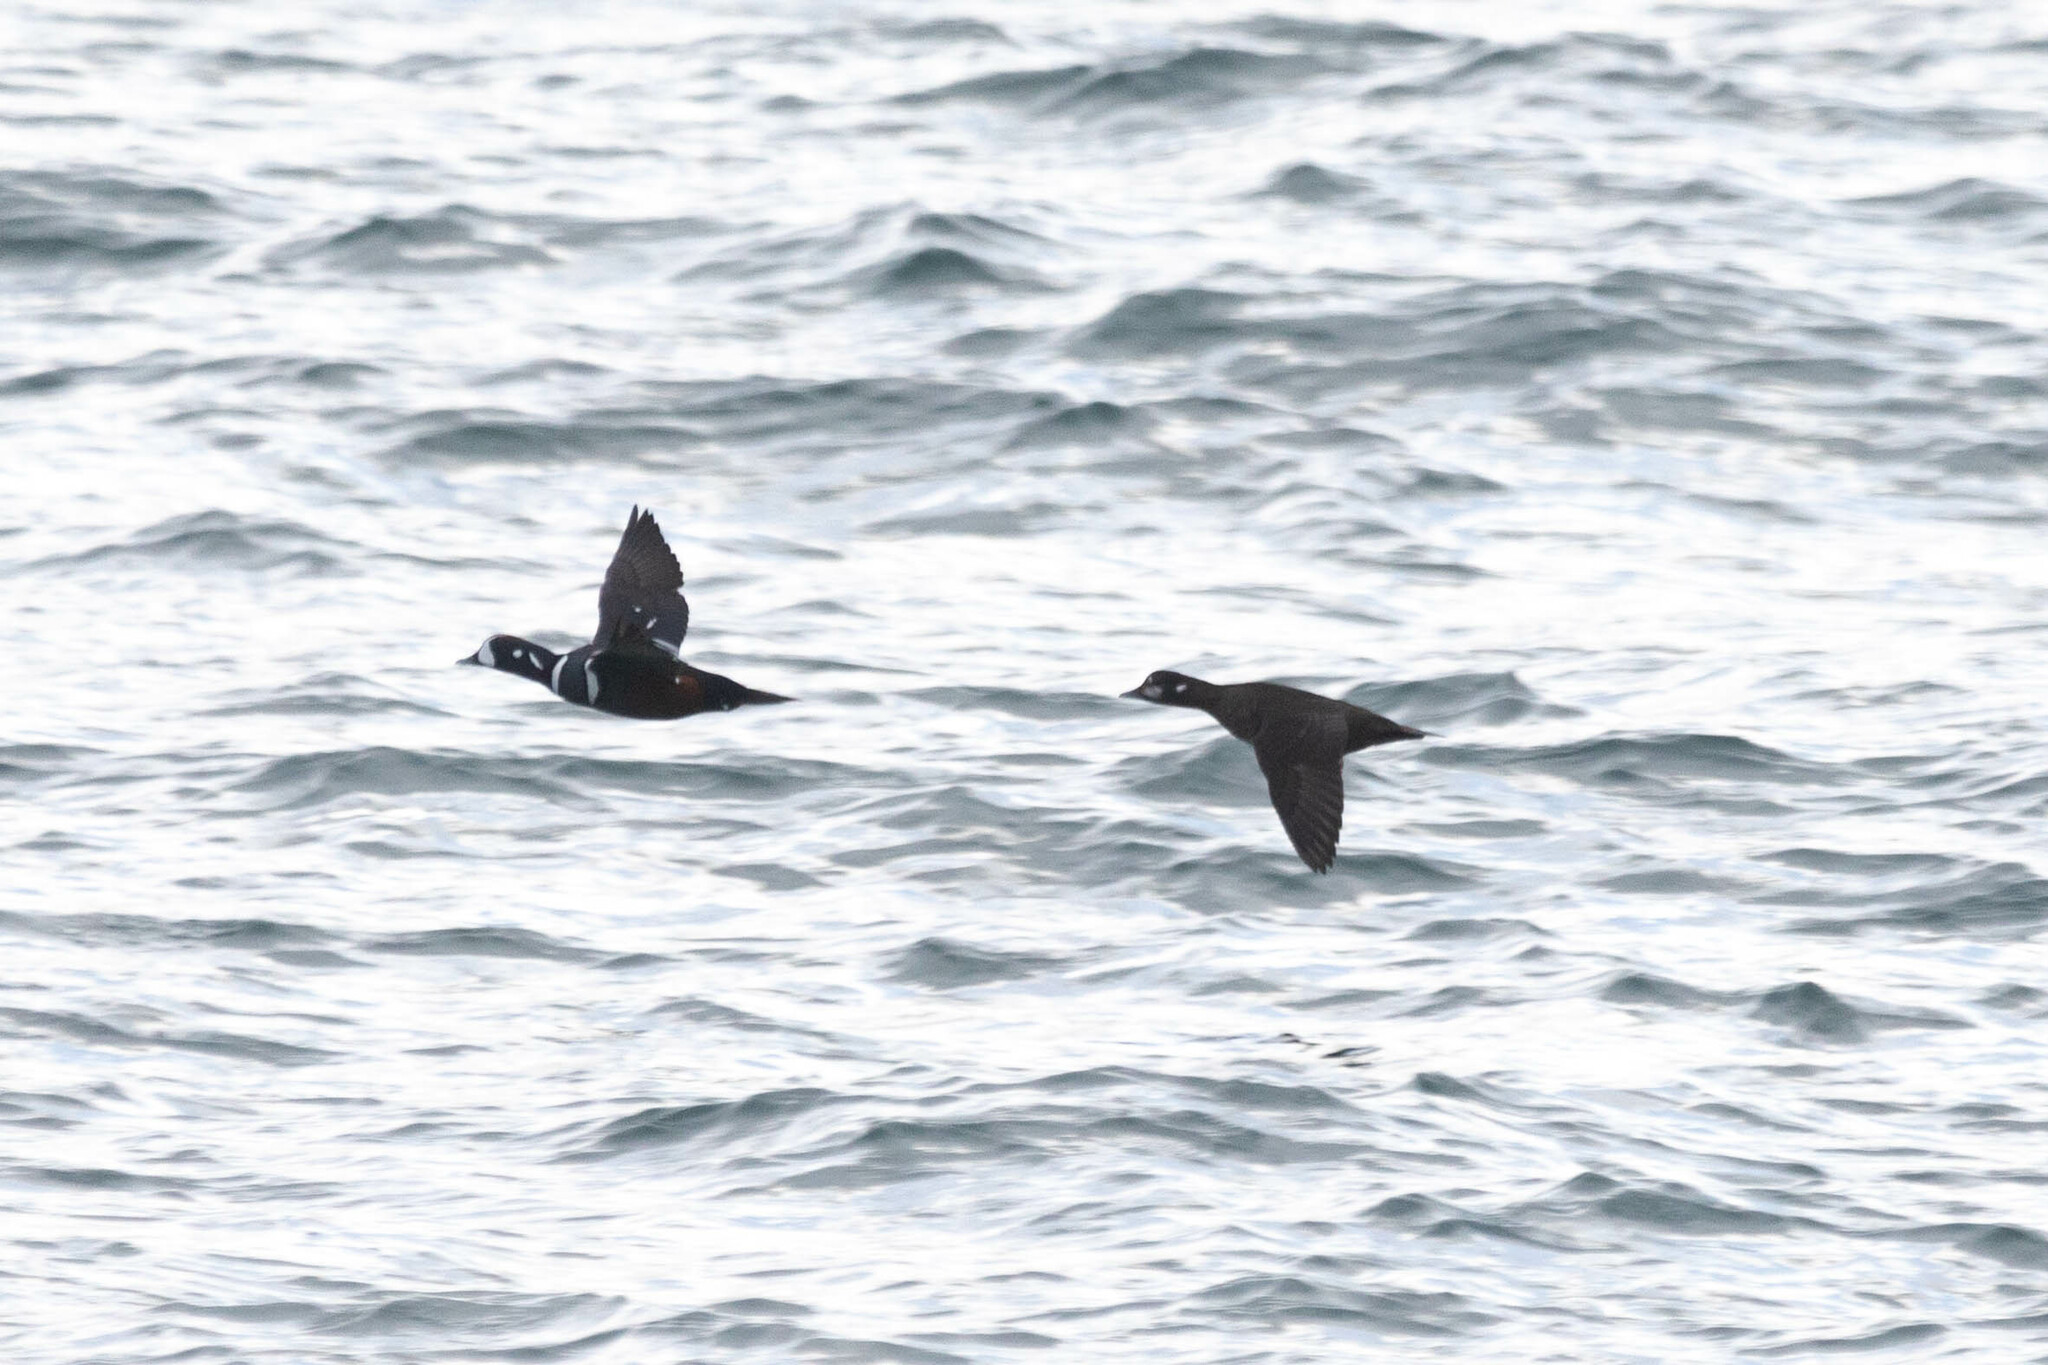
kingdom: Animalia
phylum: Chordata
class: Aves
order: Anseriformes
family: Anatidae
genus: Histrionicus
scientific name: Histrionicus histrionicus
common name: Harlequin duck
